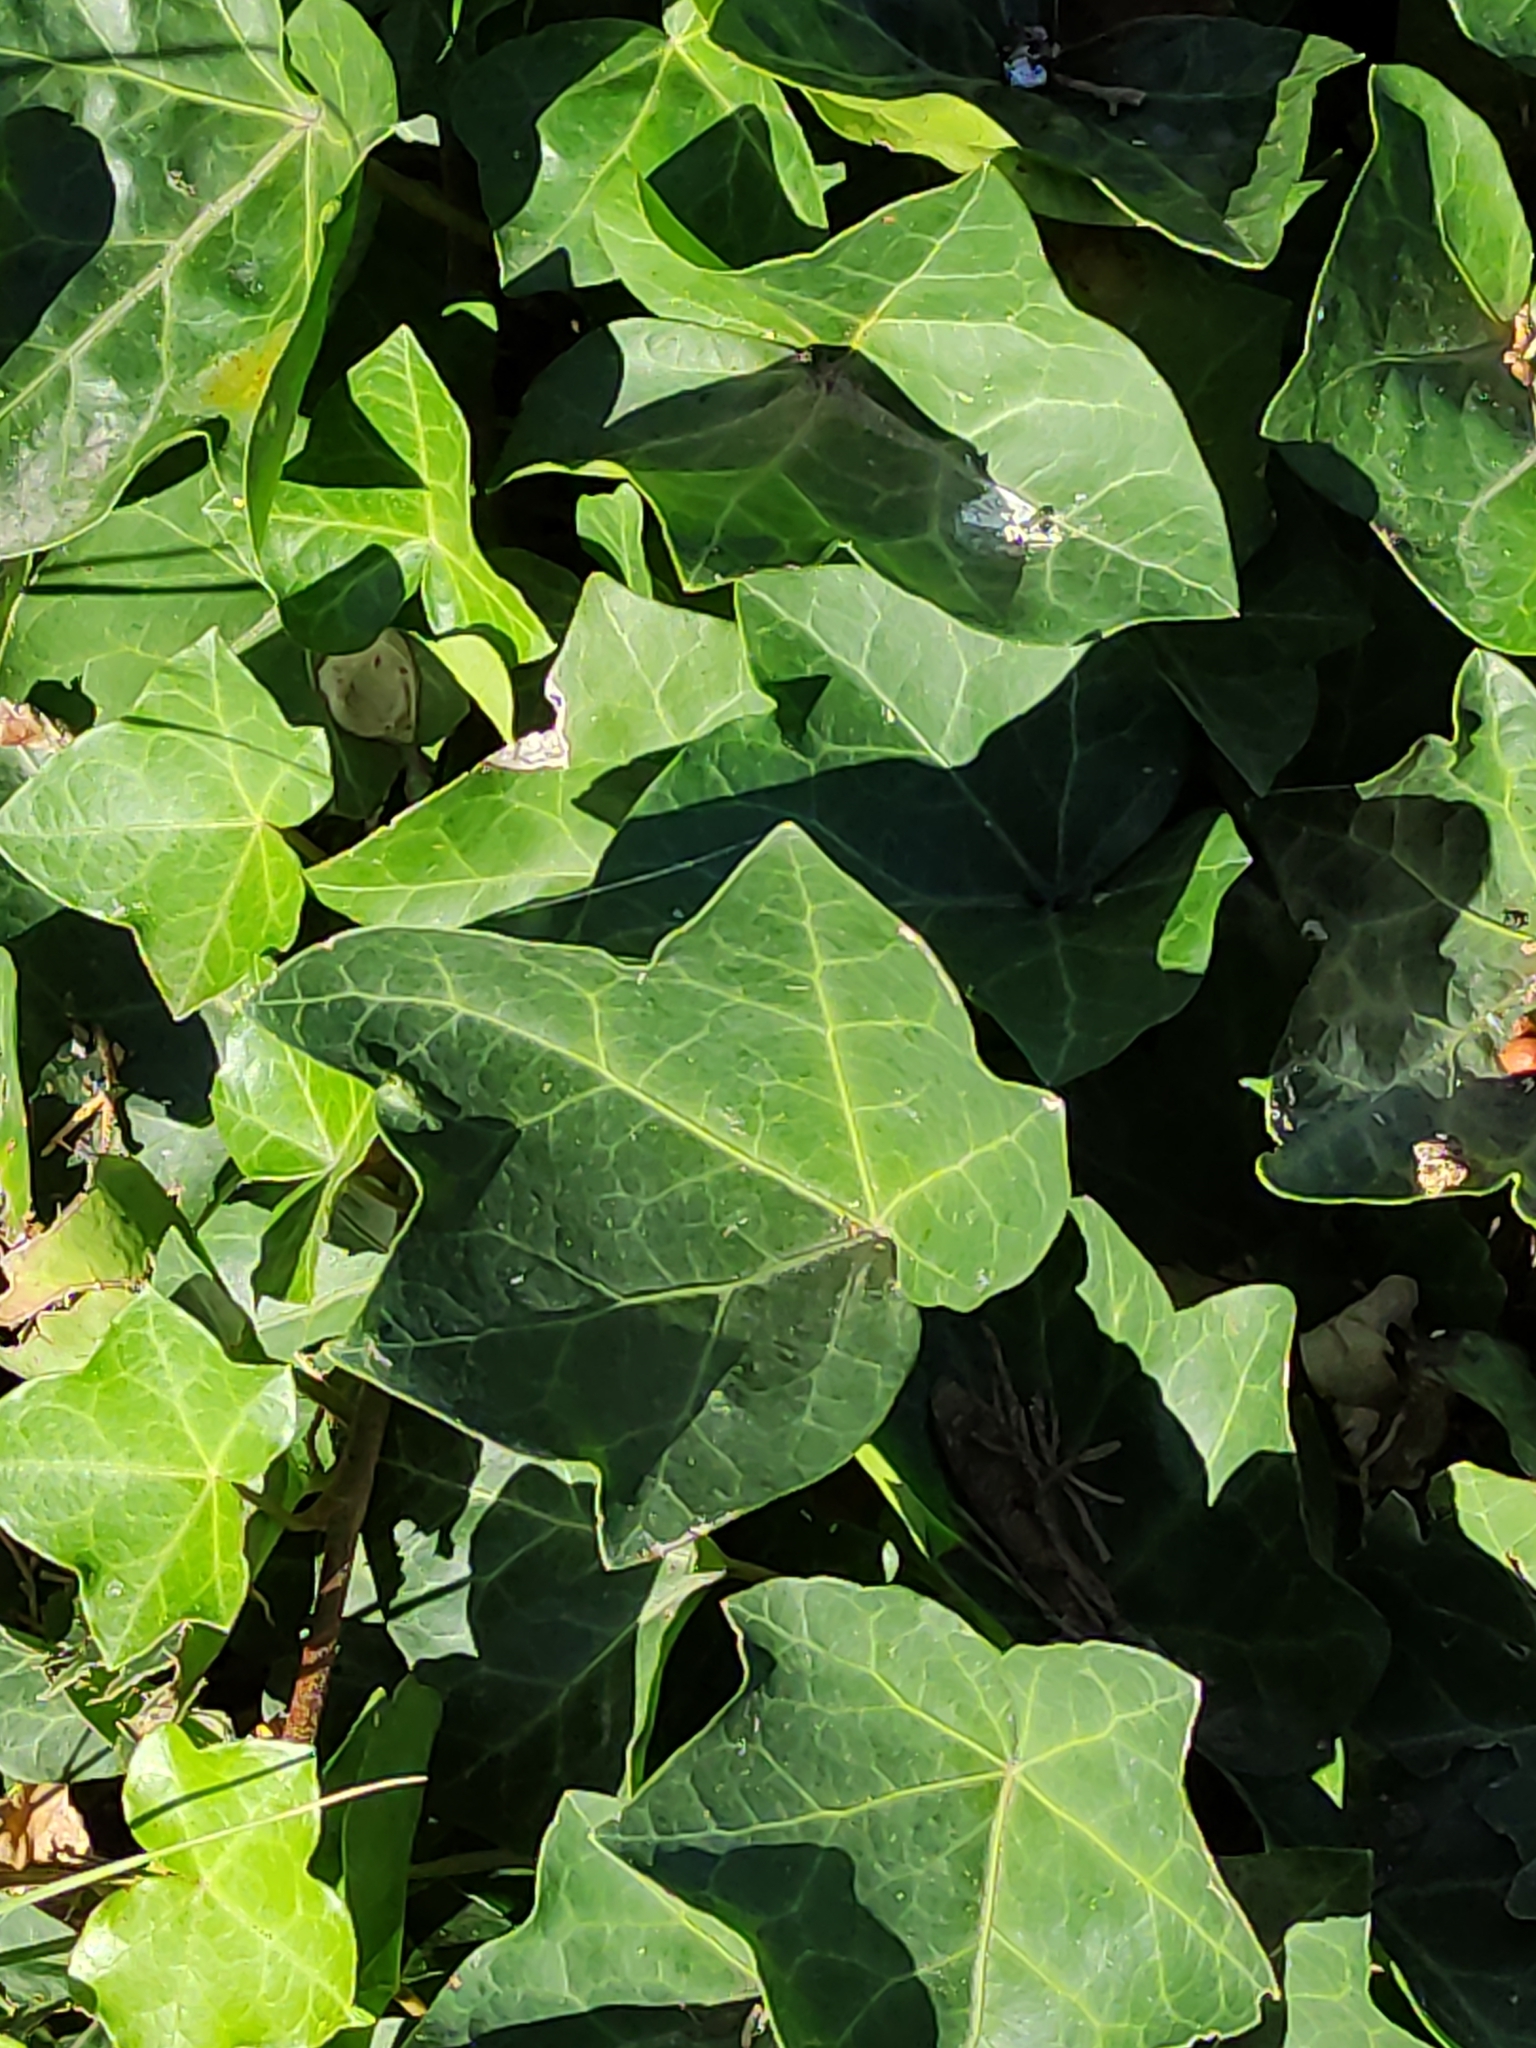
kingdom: Plantae
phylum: Tracheophyta
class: Magnoliopsida
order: Apiales
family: Araliaceae
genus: Hedera
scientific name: Hedera helix
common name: Ivy
